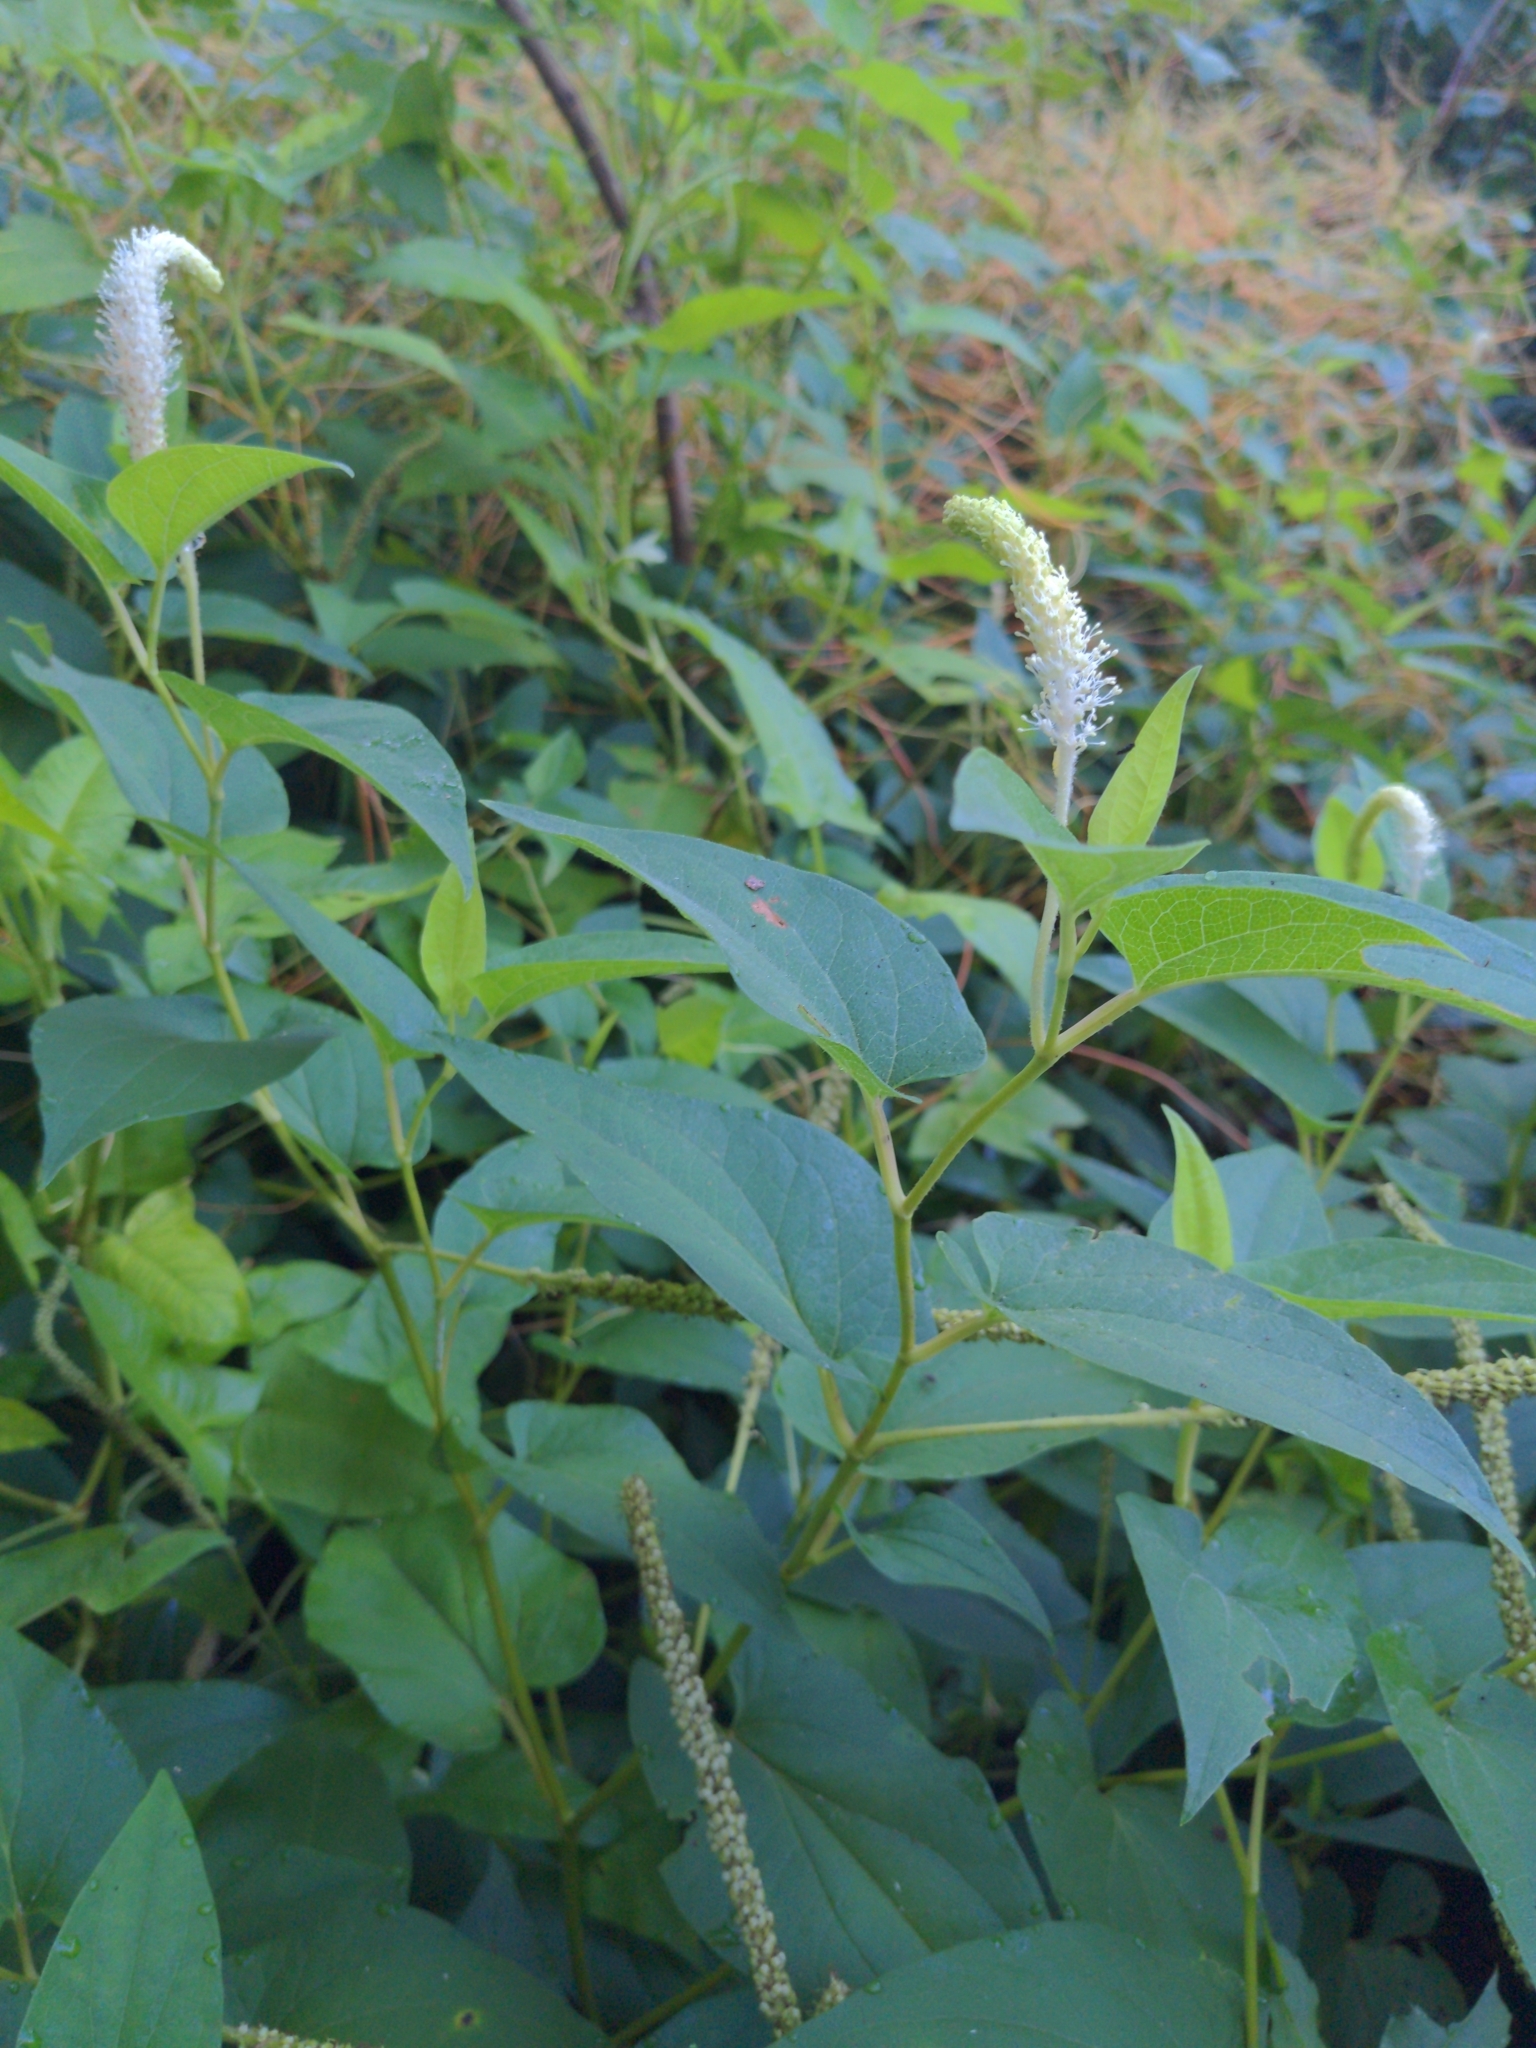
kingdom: Plantae
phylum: Tracheophyta
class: Magnoliopsida
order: Piperales
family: Saururaceae
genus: Saururus
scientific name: Saururus cernuus
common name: Lizard's-tail
